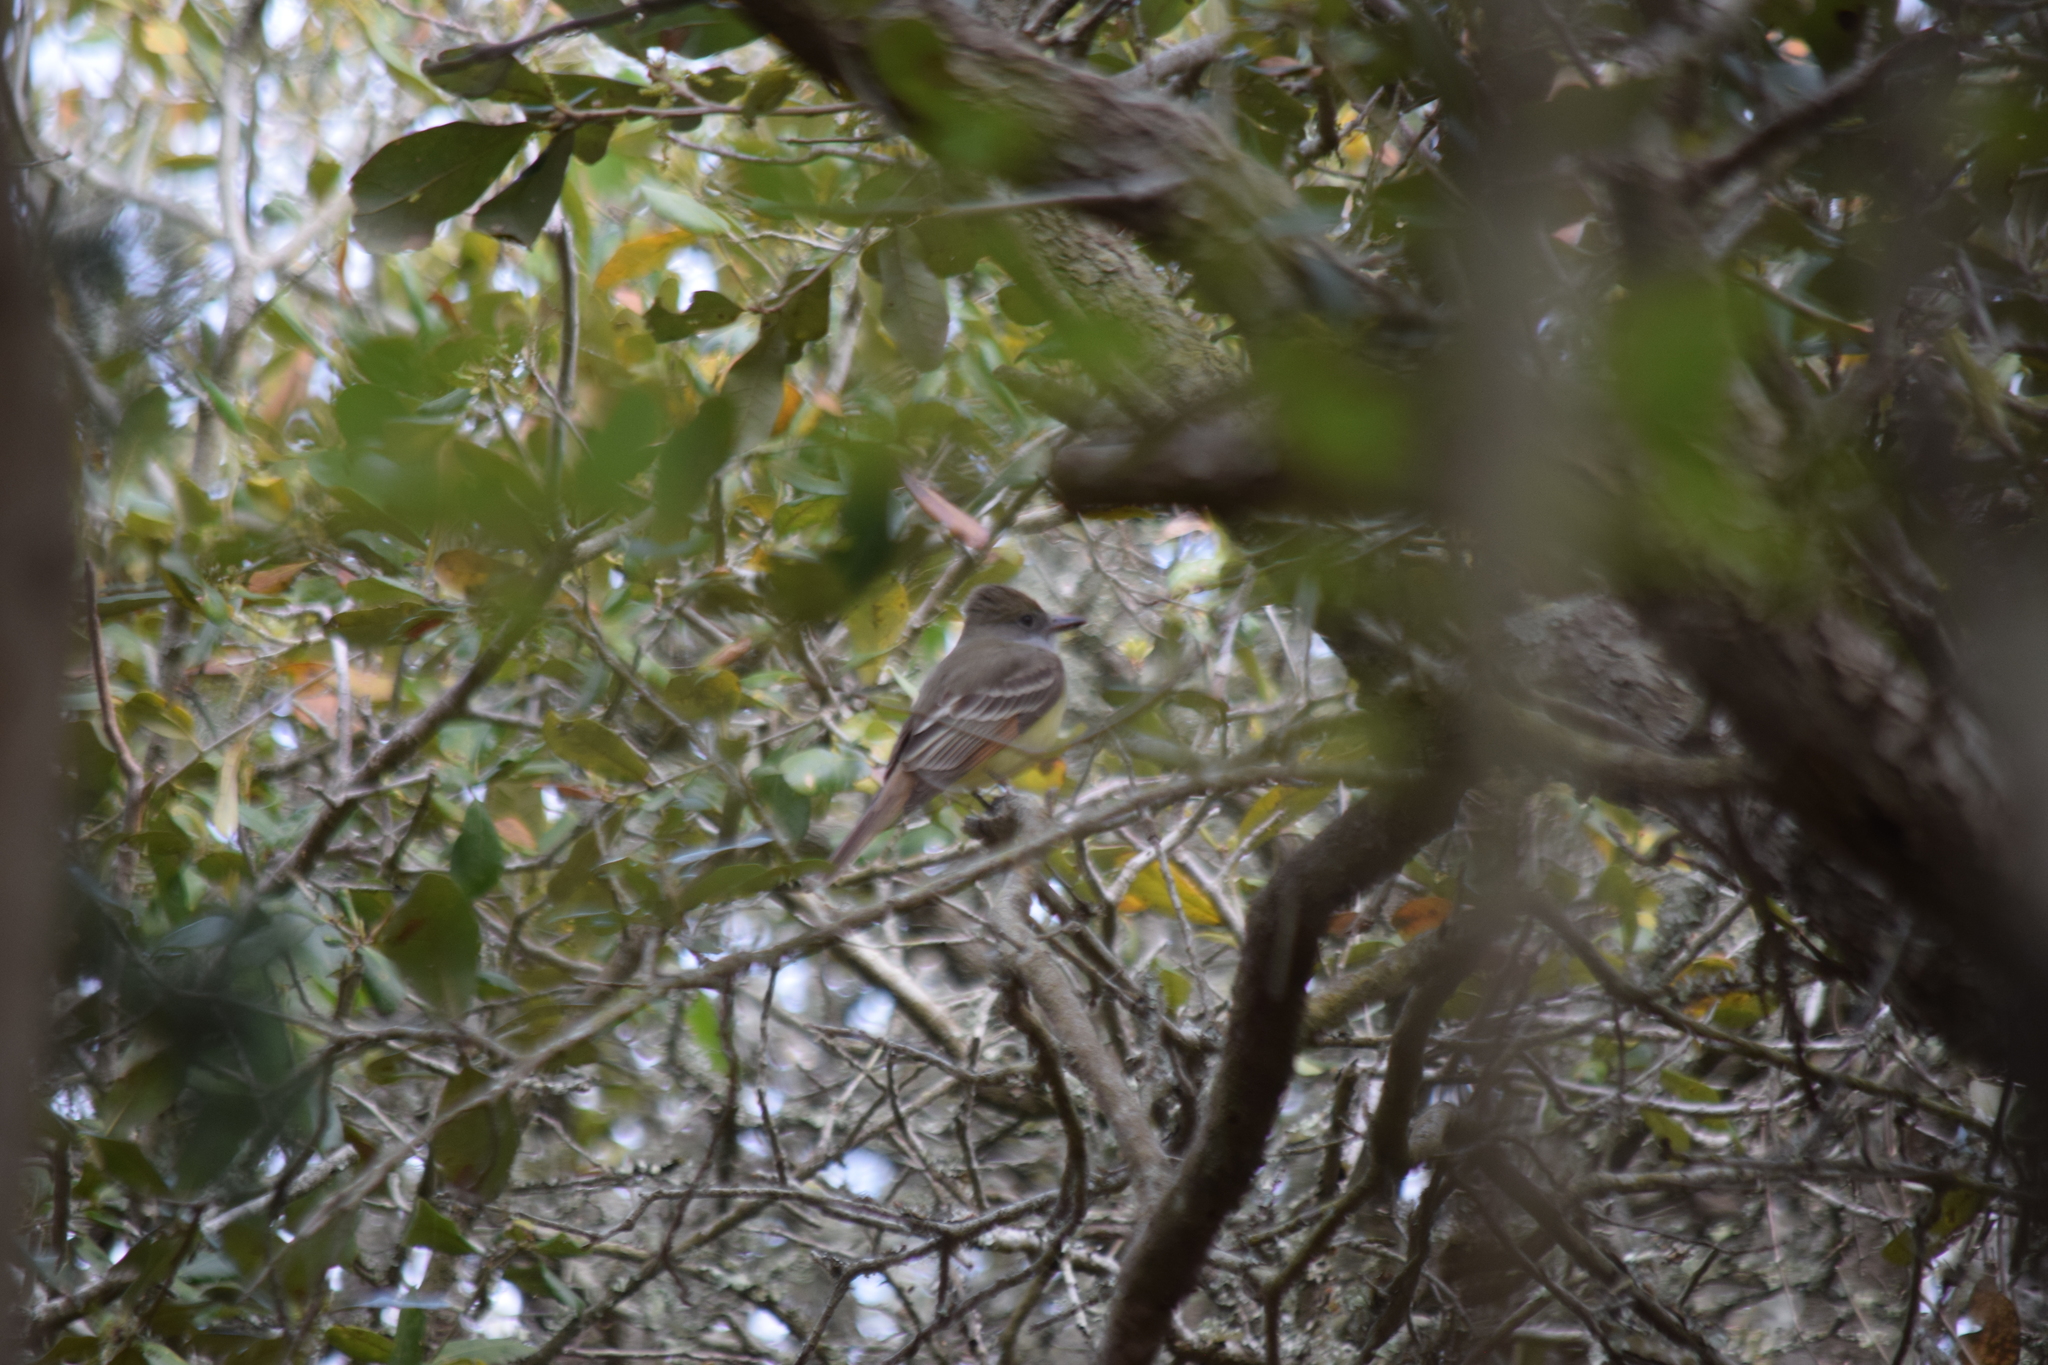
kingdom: Animalia
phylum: Chordata
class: Aves
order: Passeriformes
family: Tyrannidae
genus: Myiarchus
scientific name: Myiarchus crinitus
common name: Great crested flycatcher
